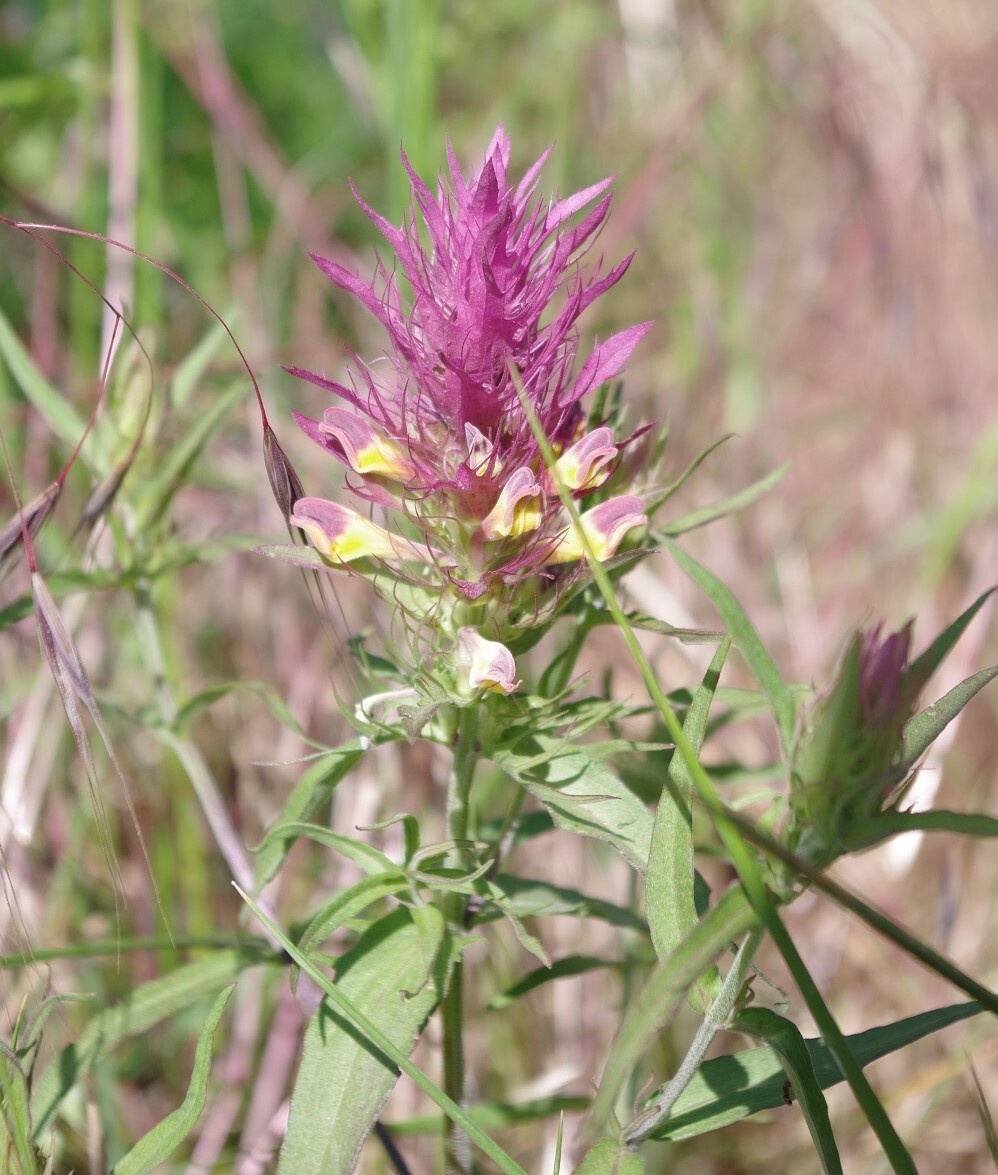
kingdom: Plantae
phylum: Tracheophyta
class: Magnoliopsida
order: Lamiales
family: Orobanchaceae
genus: Melampyrum
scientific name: Melampyrum arvense
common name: Field cow-wheat
